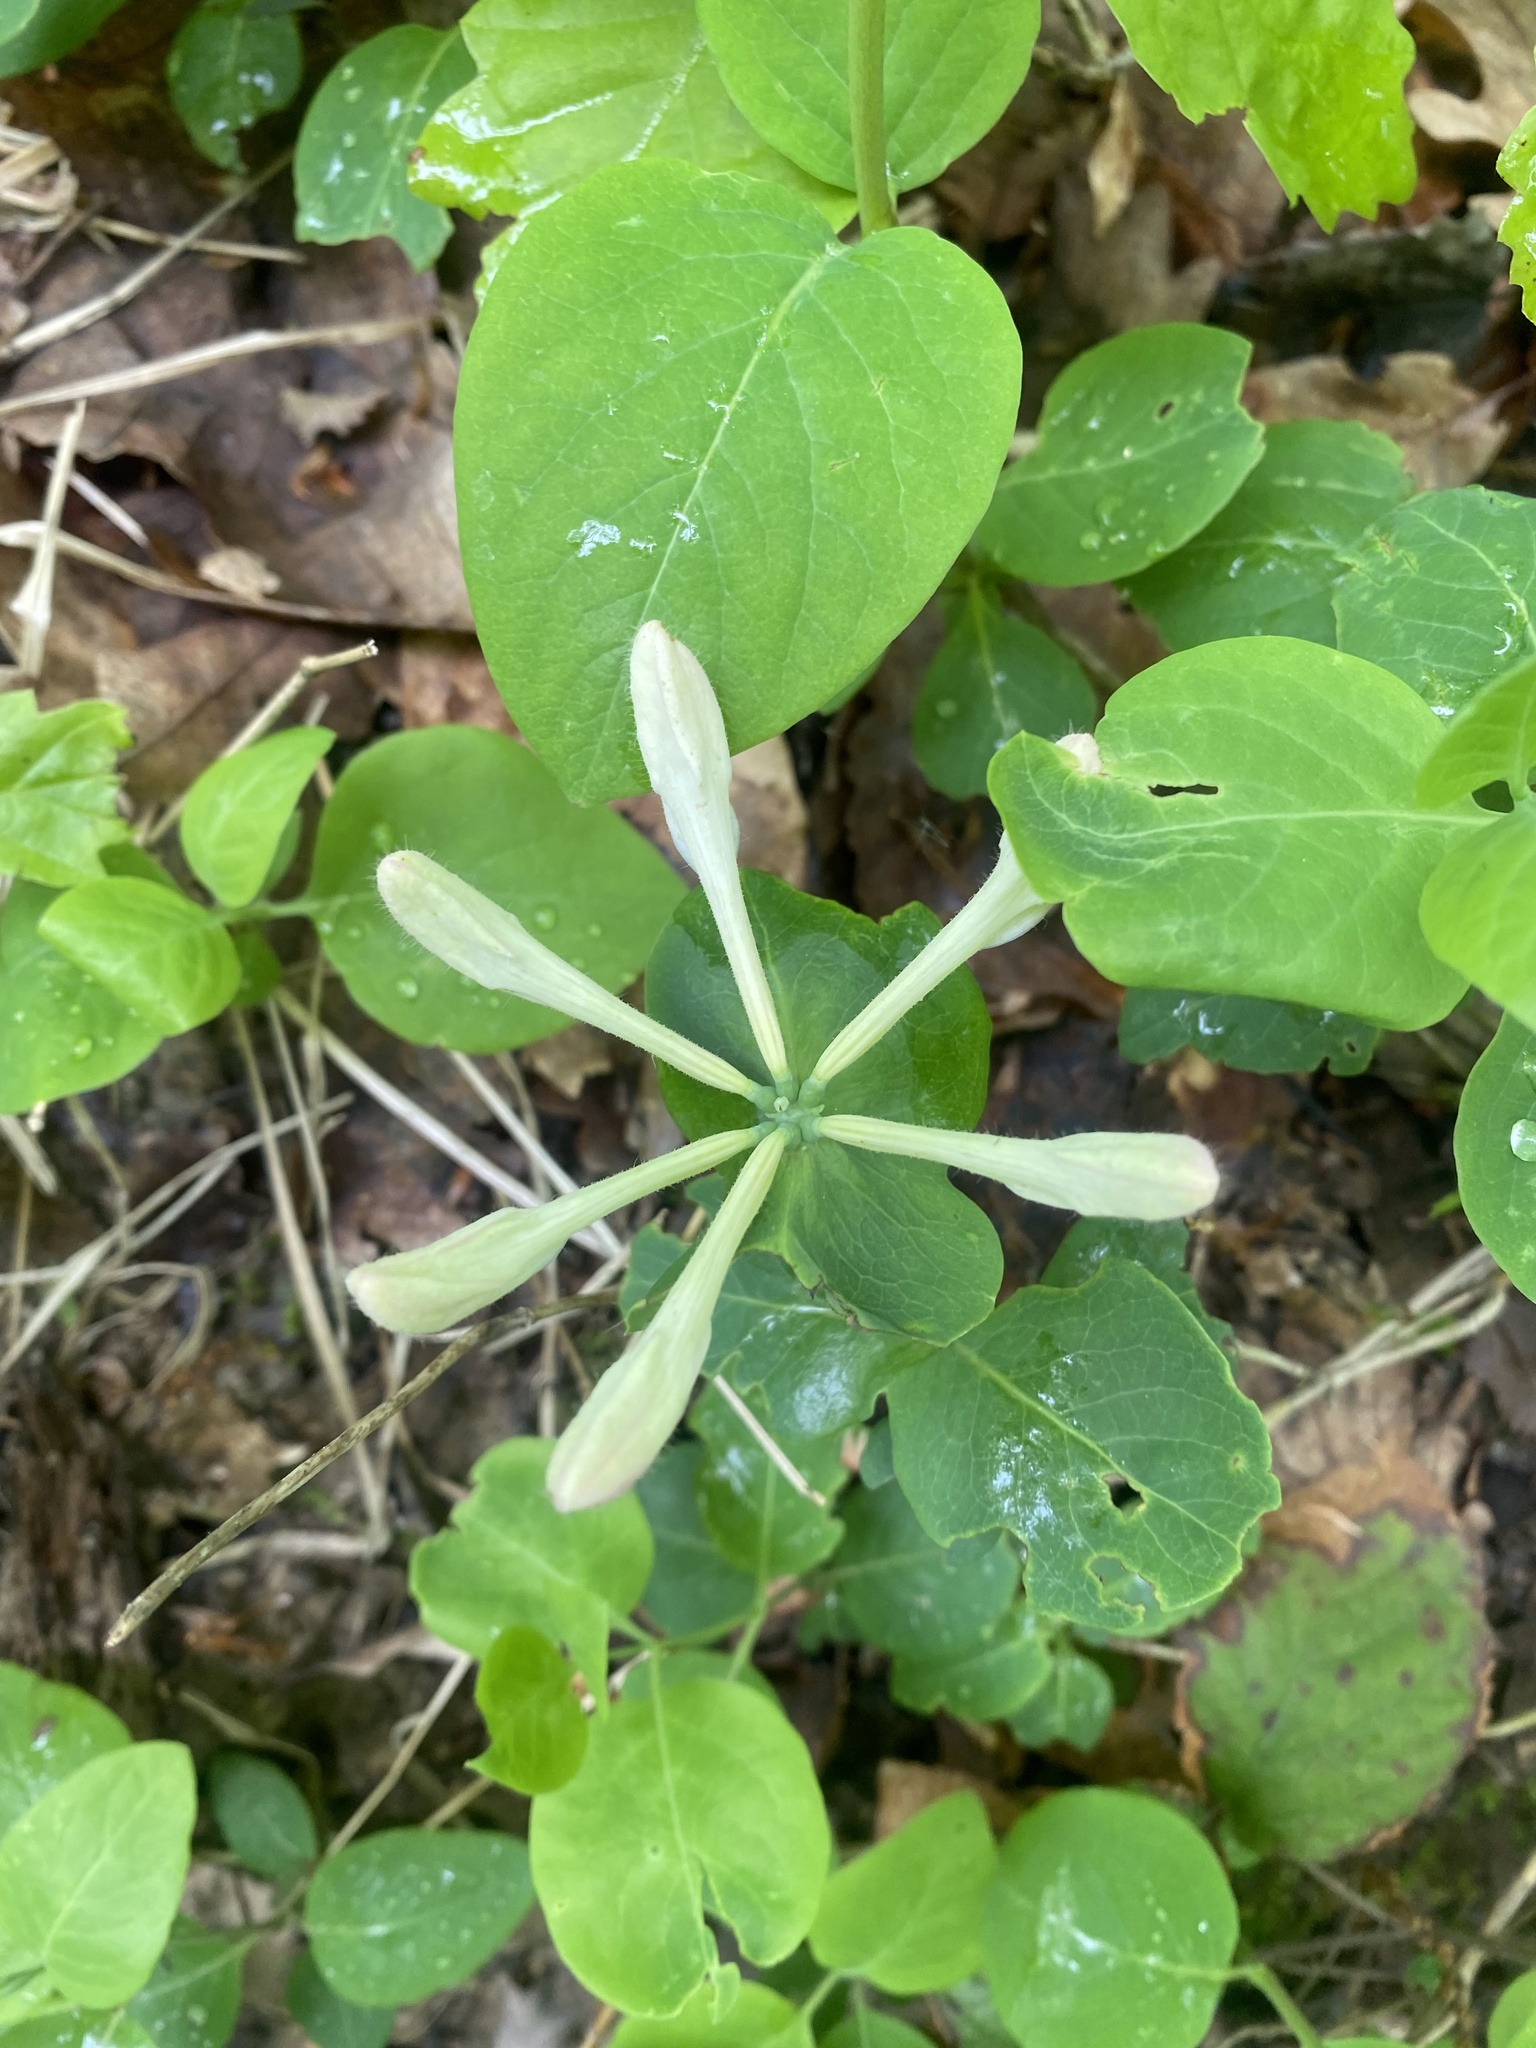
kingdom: Plantae
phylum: Tracheophyta
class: Magnoliopsida
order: Dipsacales
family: Caprifoliaceae
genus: Lonicera
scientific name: Lonicera caprifolium
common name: Perfoliate honeysuckle
